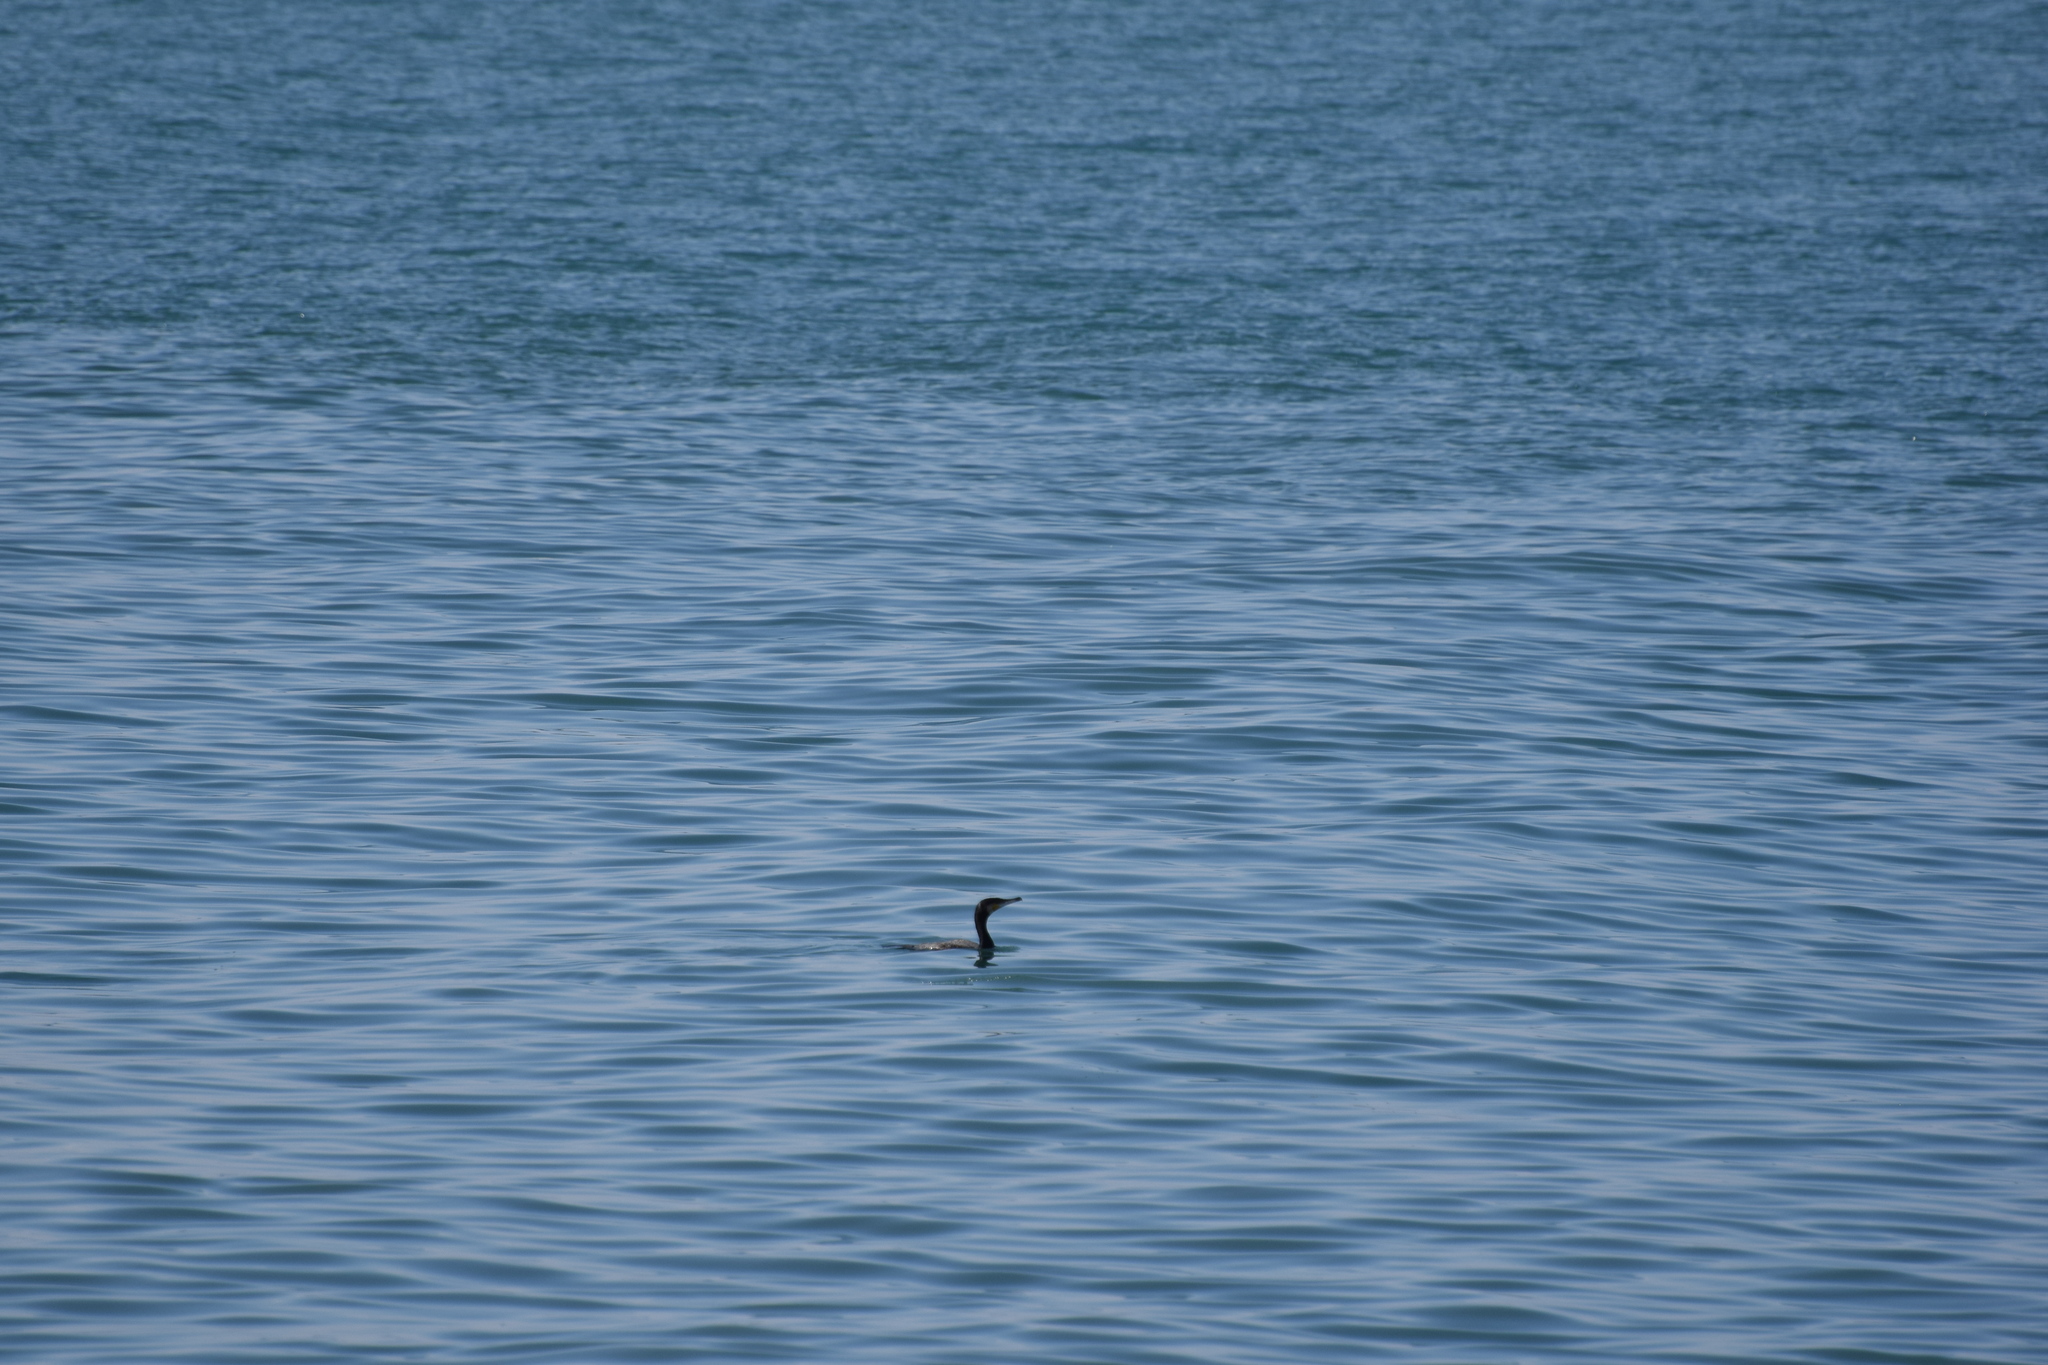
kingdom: Animalia
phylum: Chordata
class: Aves
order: Suliformes
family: Phalacrocoracidae
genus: Phalacrocorax
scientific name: Phalacrocorax carbo
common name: Great cormorant
